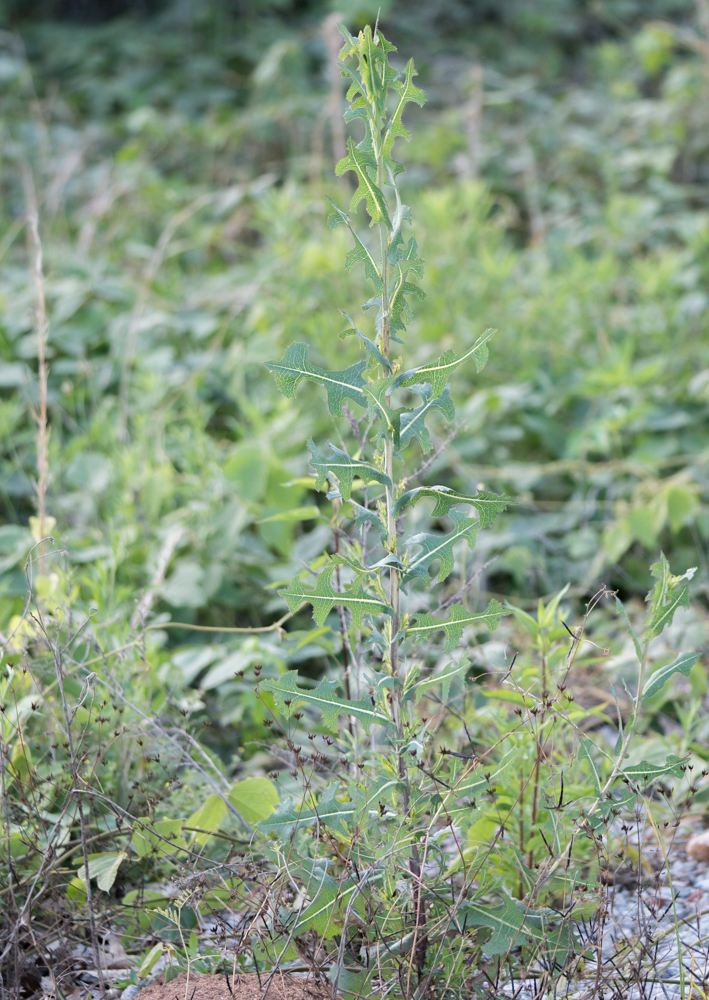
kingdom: Plantae
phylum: Tracheophyta
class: Magnoliopsida
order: Asterales
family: Asteraceae
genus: Lactuca
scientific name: Lactuca serriola
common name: Prickly lettuce
